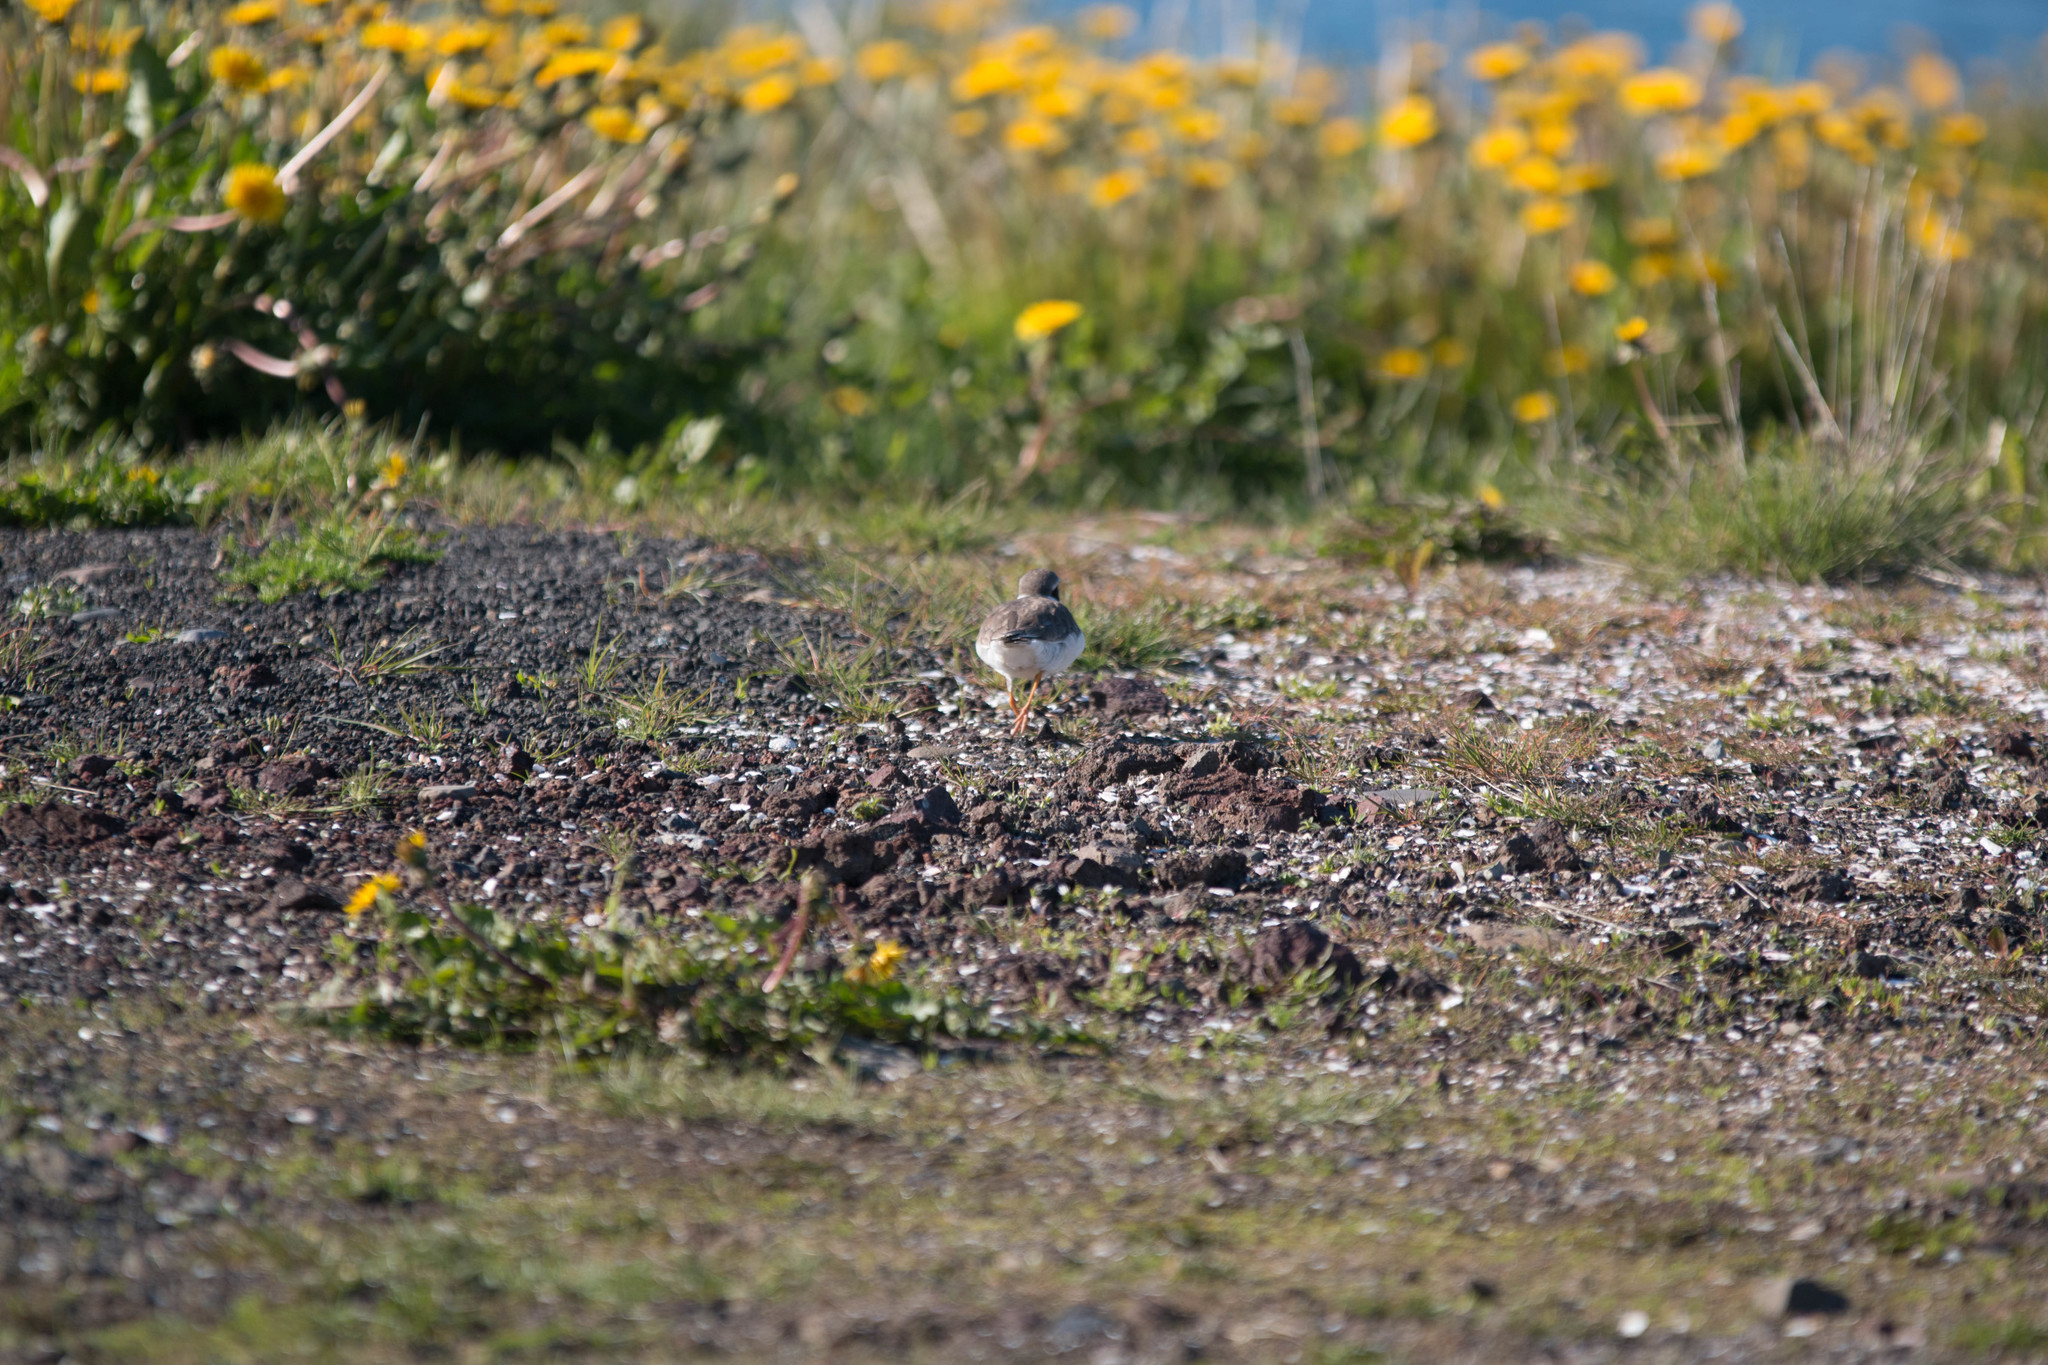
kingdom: Animalia
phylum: Chordata
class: Aves
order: Charadriiformes
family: Charadriidae
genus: Charadrius
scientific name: Charadrius hiaticula
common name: Common ringed plover
